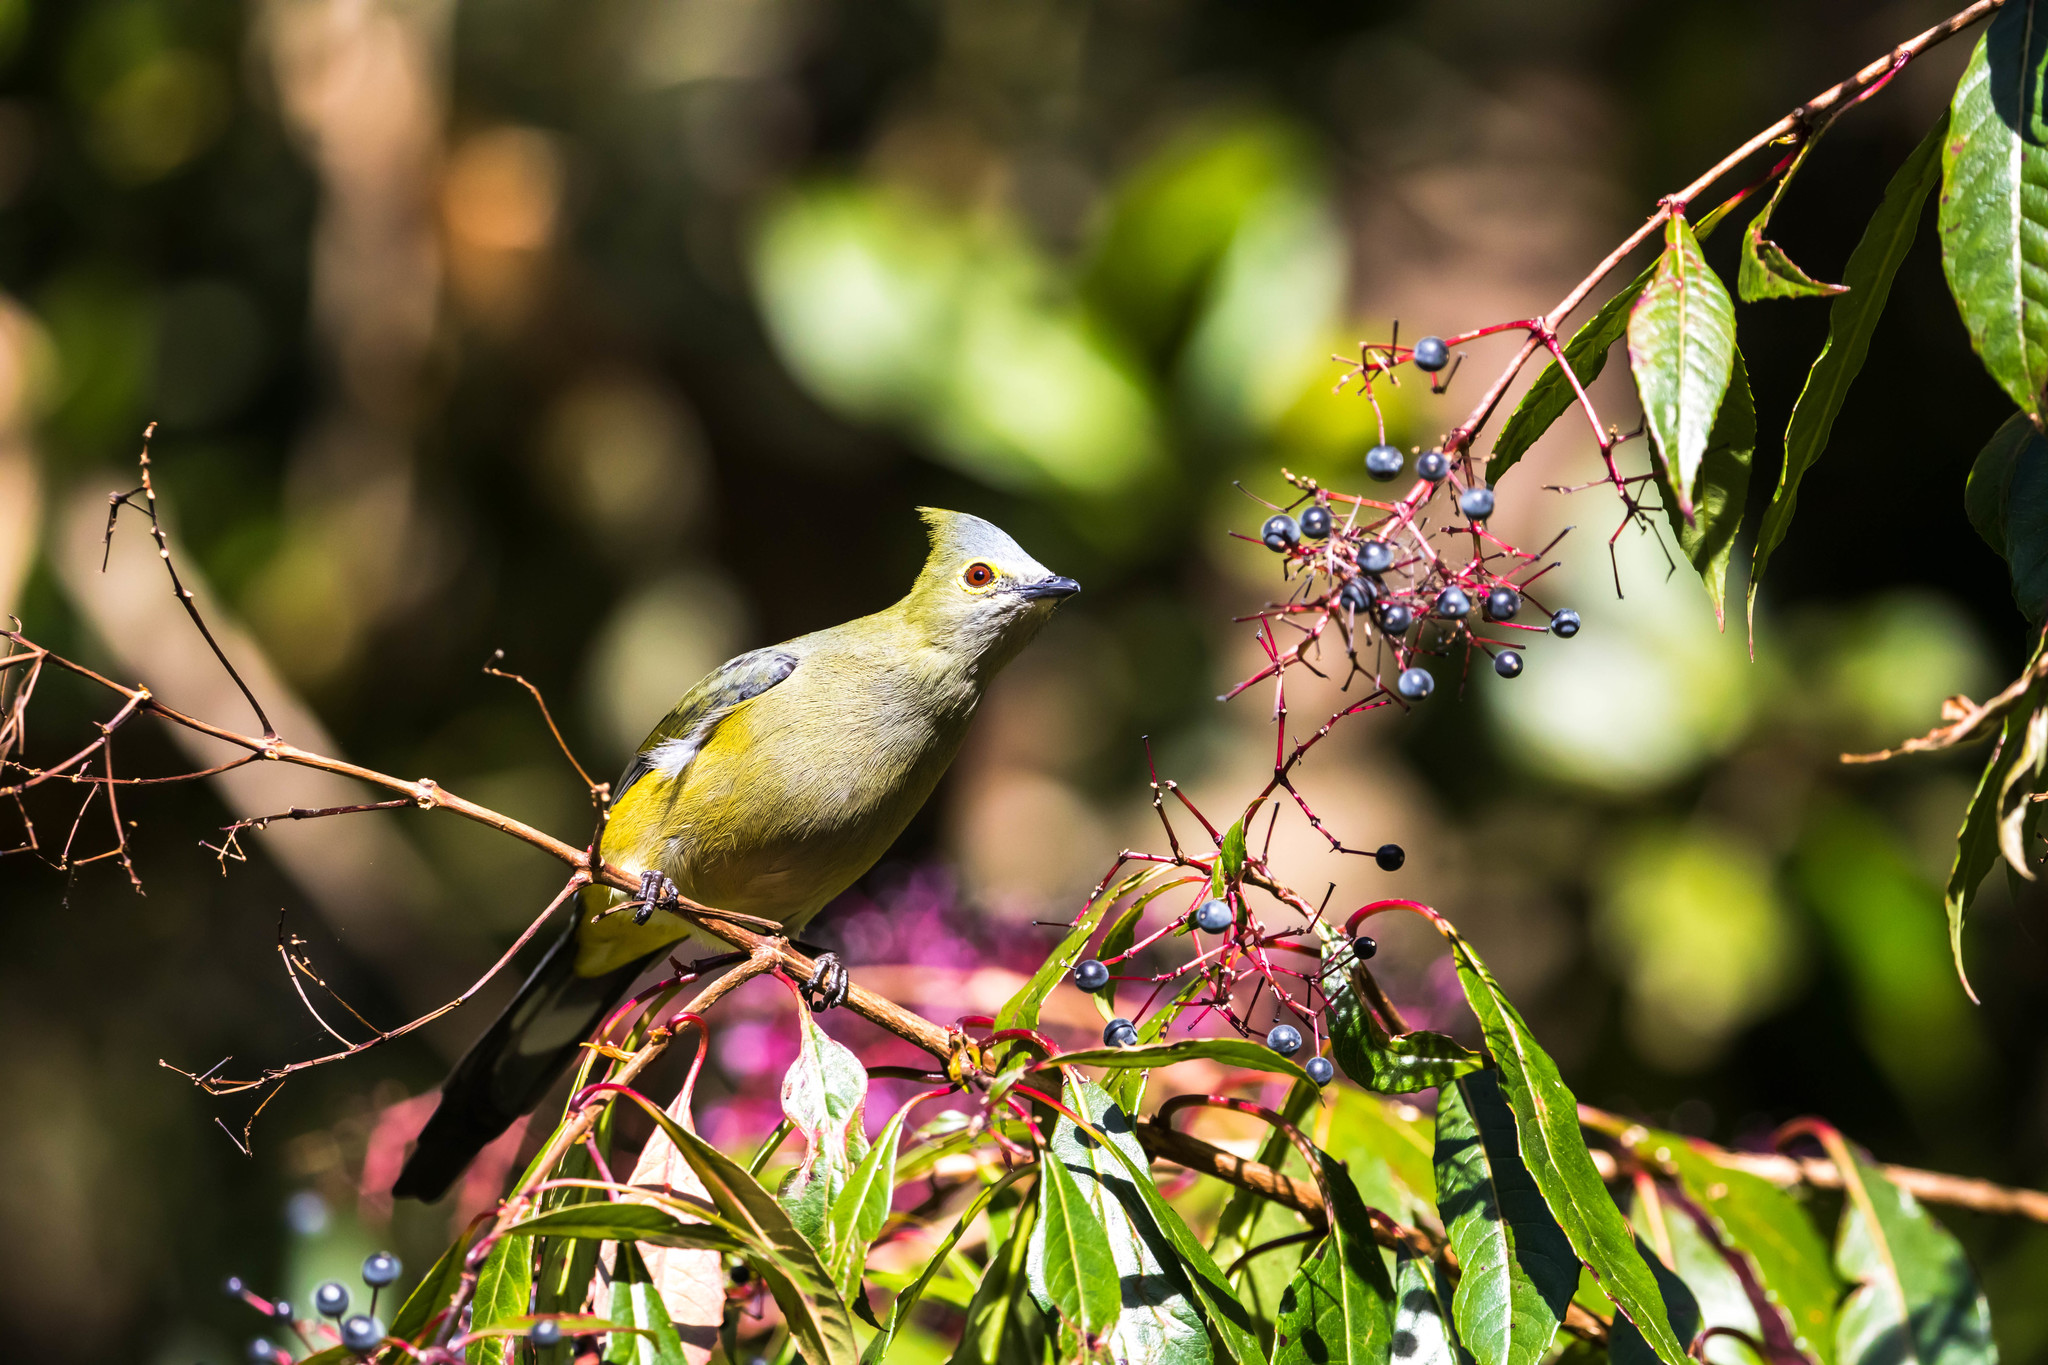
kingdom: Animalia
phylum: Chordata
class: Aves
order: Passeriformes
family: Ptilogonatidae
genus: Ptilogonys
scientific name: Ptilogonys caudatus
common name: Long-tailed silky-flycatcher
